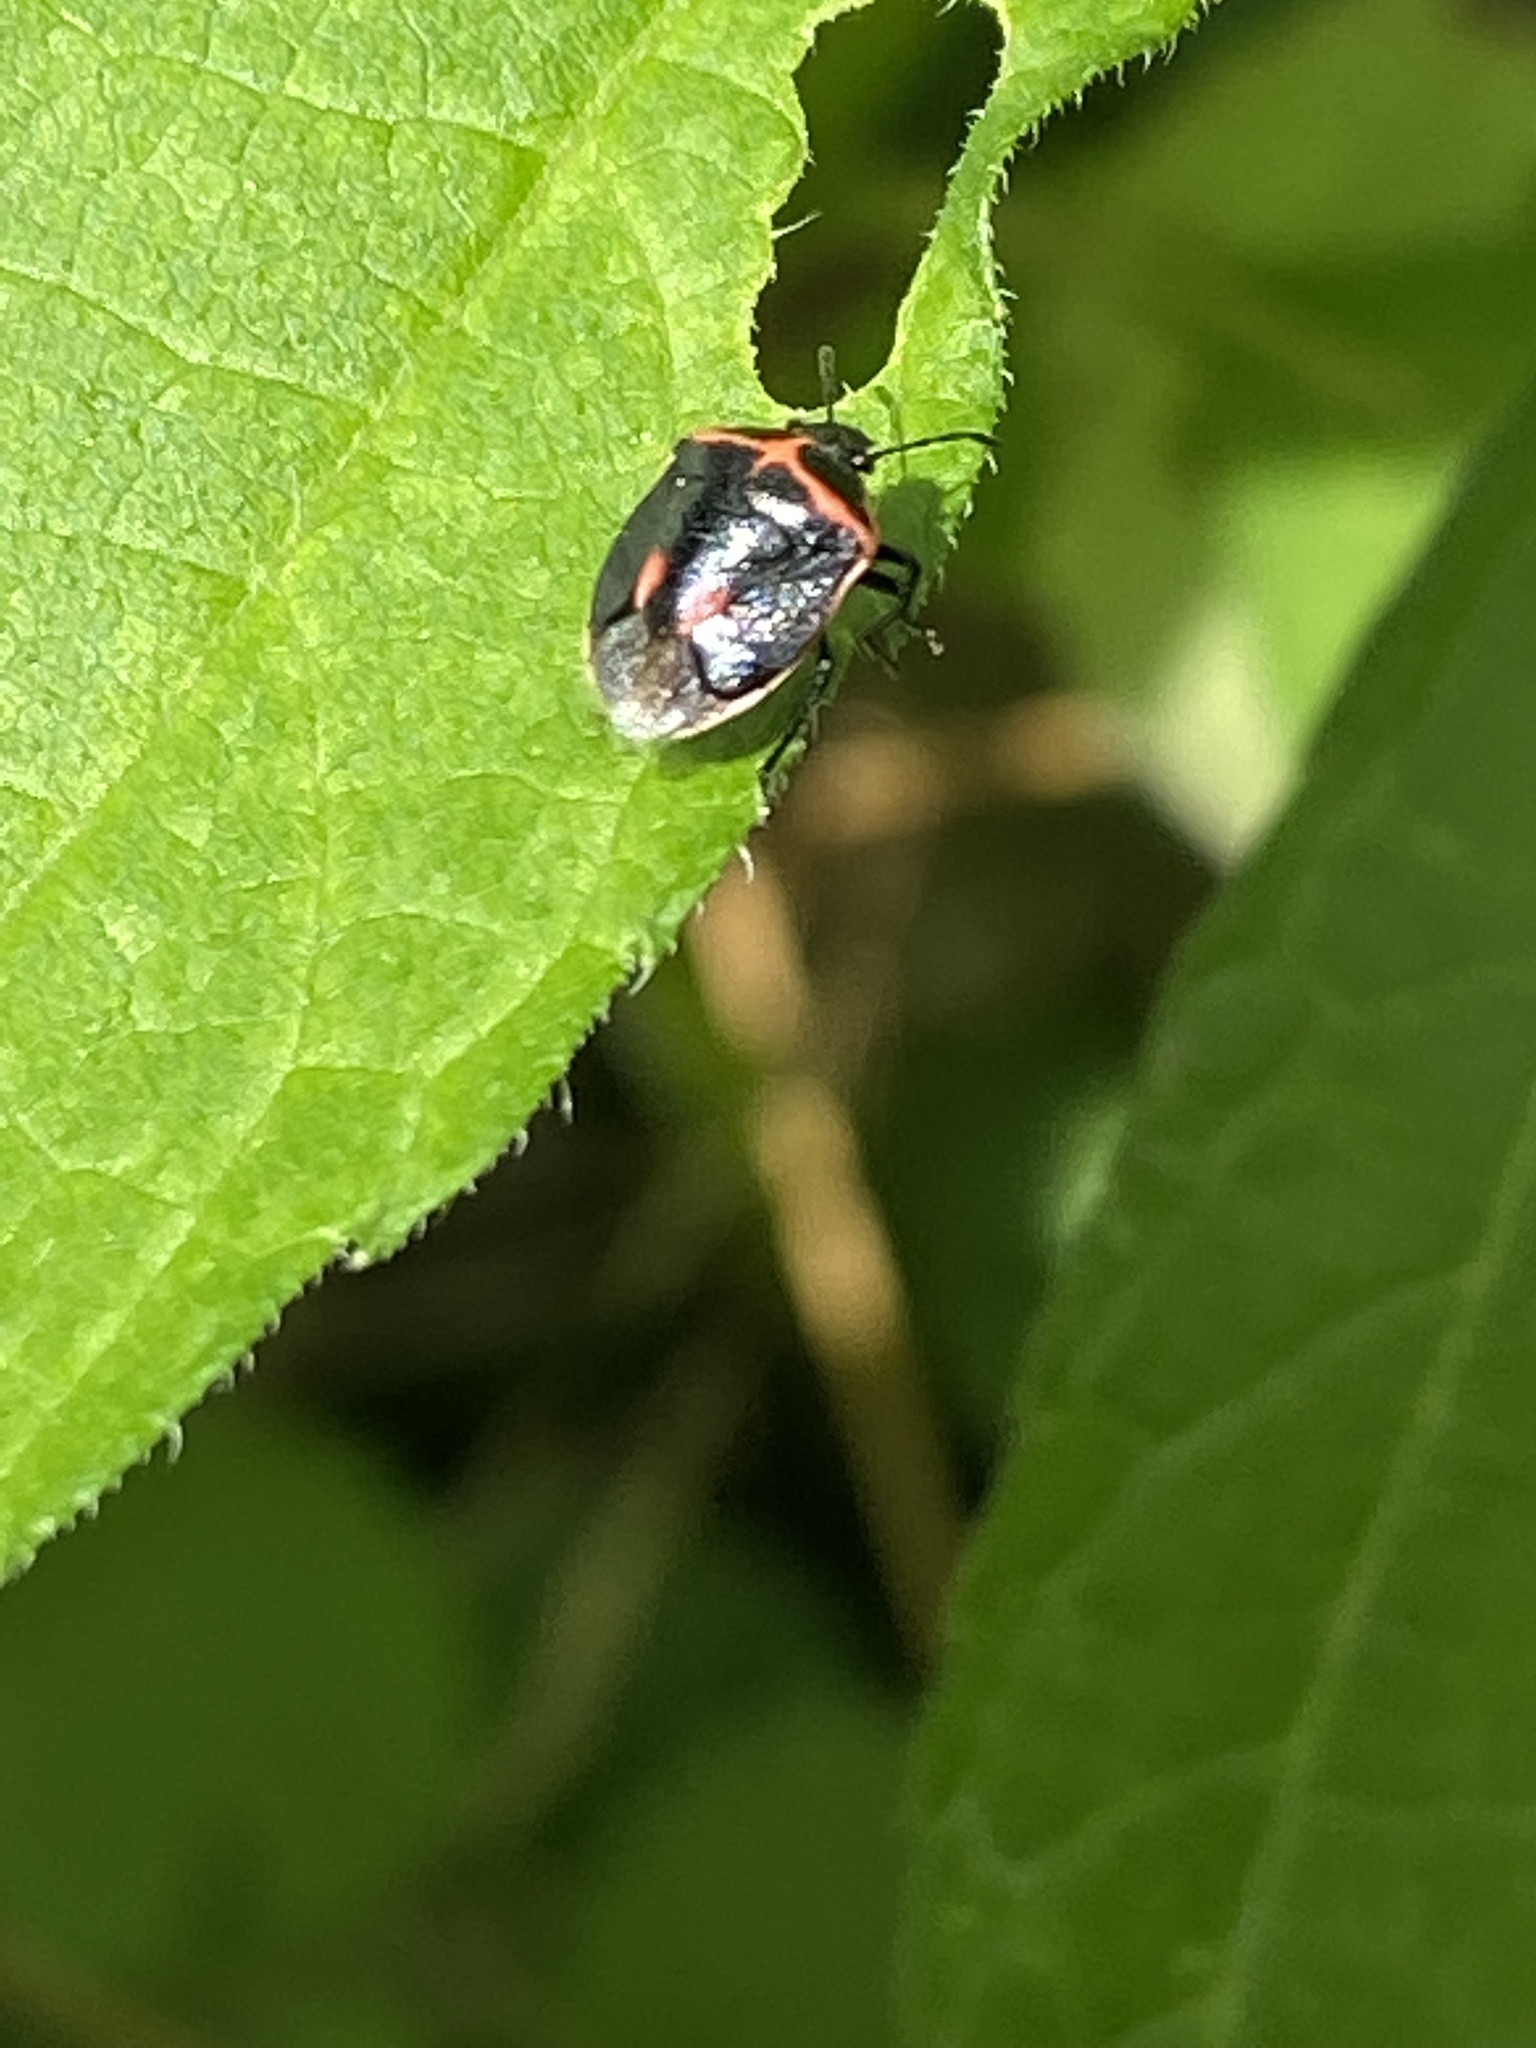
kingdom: Animalia
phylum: Arthropoda
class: Insecta
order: Hemiptera
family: Pentatomidae
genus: Cosmopepla
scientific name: Cosmopepla lintneriana
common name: Twice-stabbed stink bug
